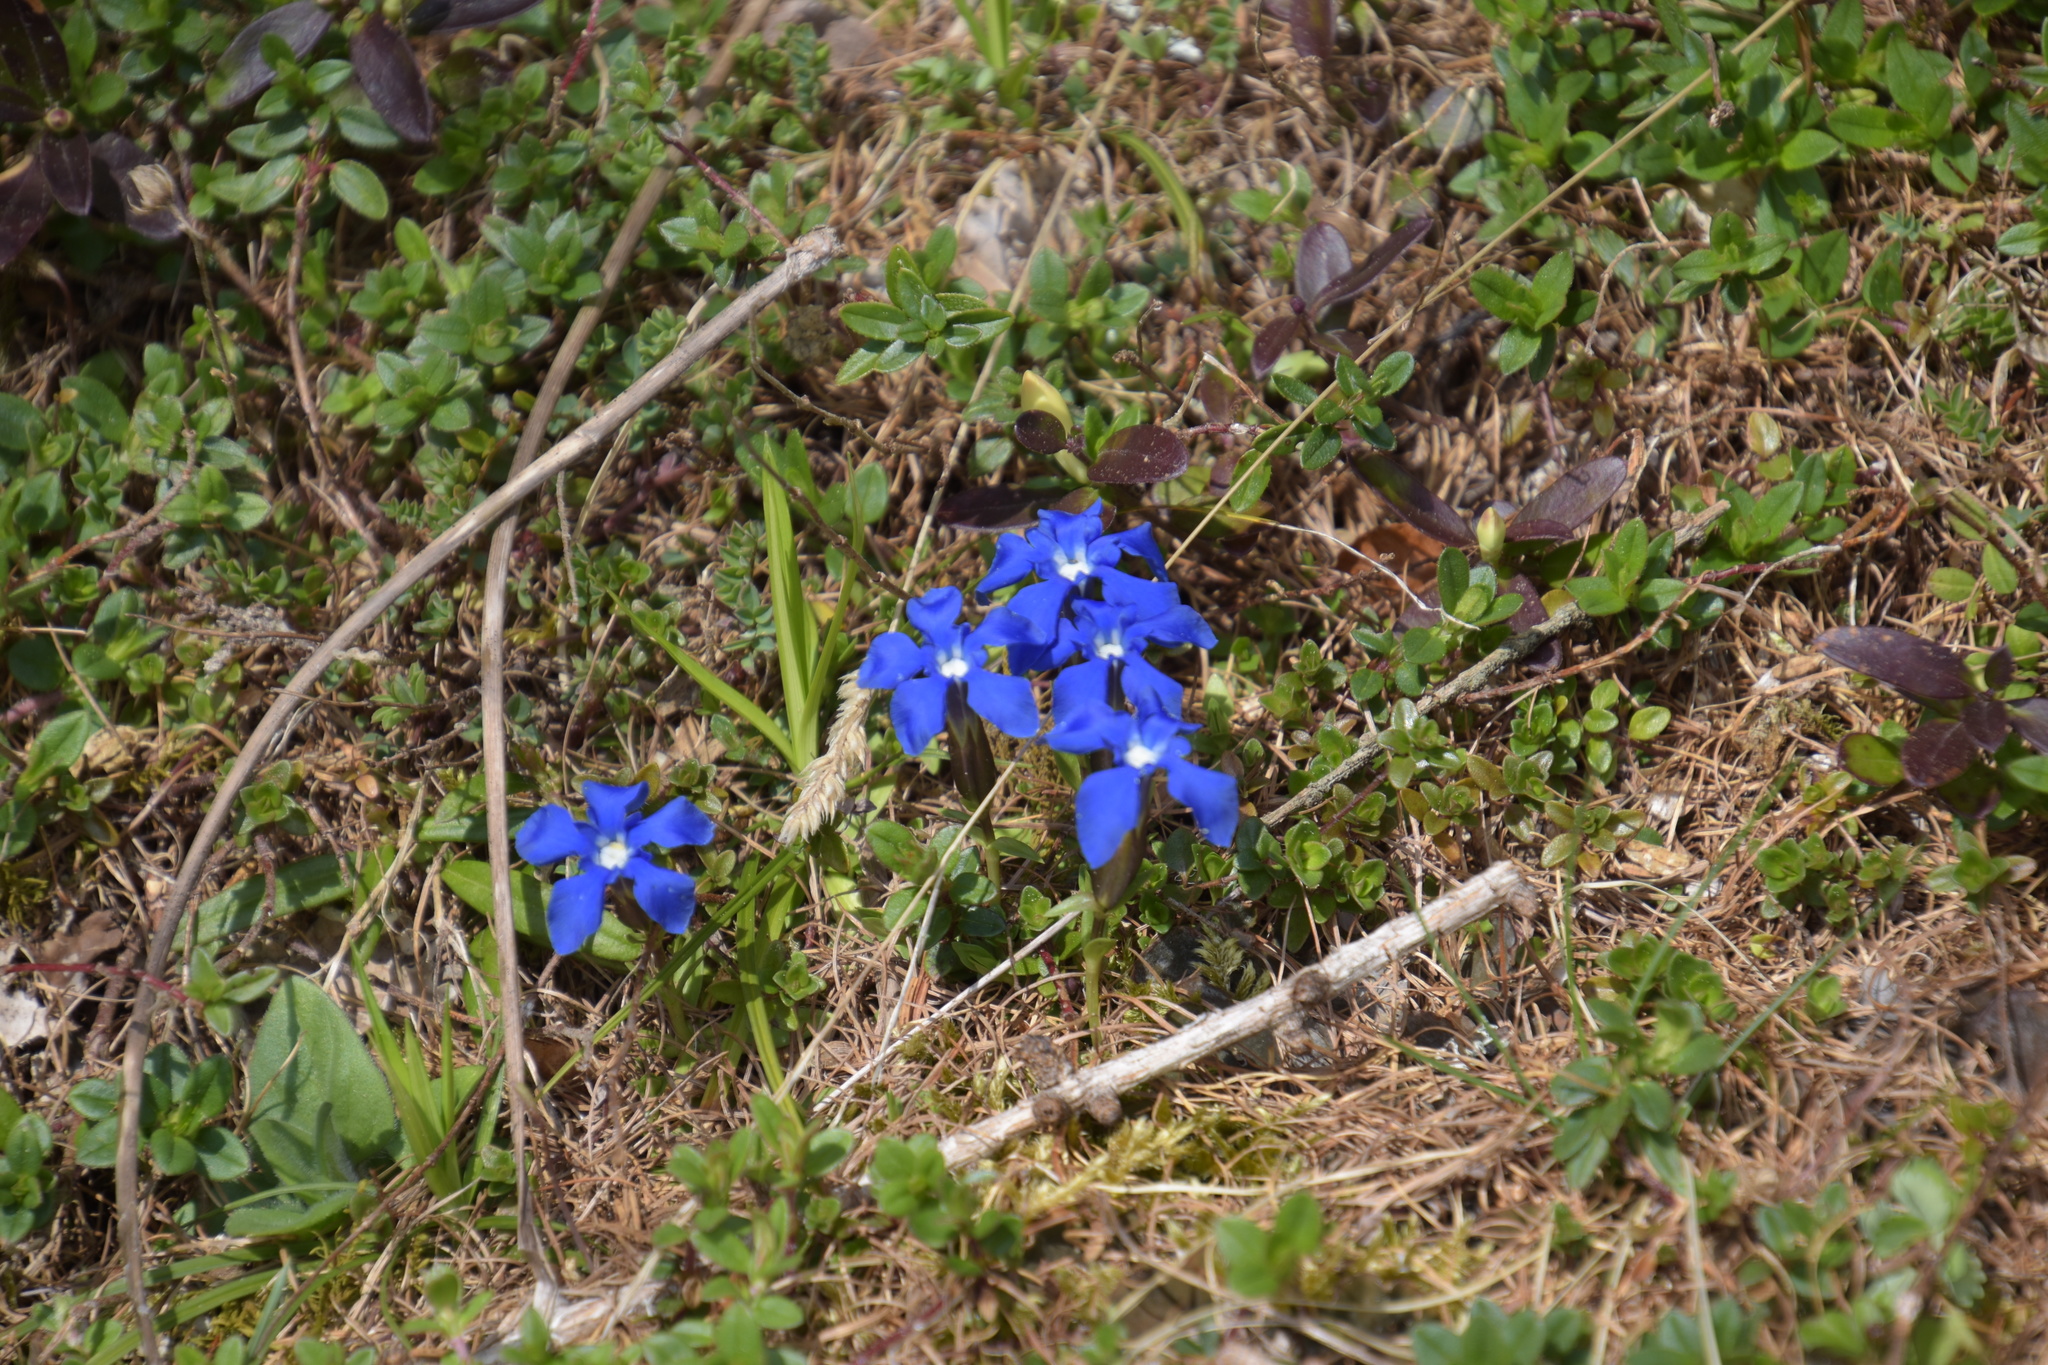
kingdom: Plantae
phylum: Tracheophyta
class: Magnoliopsida
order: Gentianales
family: Gentianaceae
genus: Gentiana
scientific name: Gentiana verna
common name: Spring gentian
